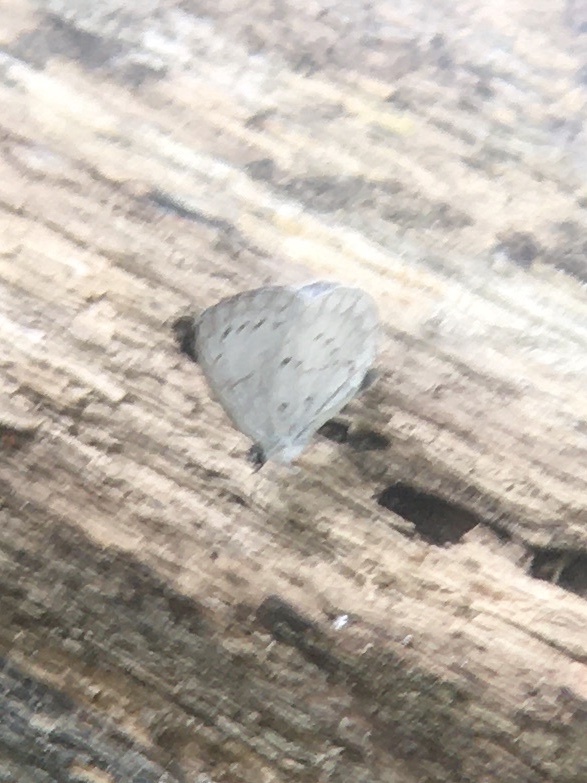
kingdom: Animalia
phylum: Arthropoda
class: Insecta
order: Lepidoptera
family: Lycaenidae
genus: Cyaniris
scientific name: Cyaniris neglecta
